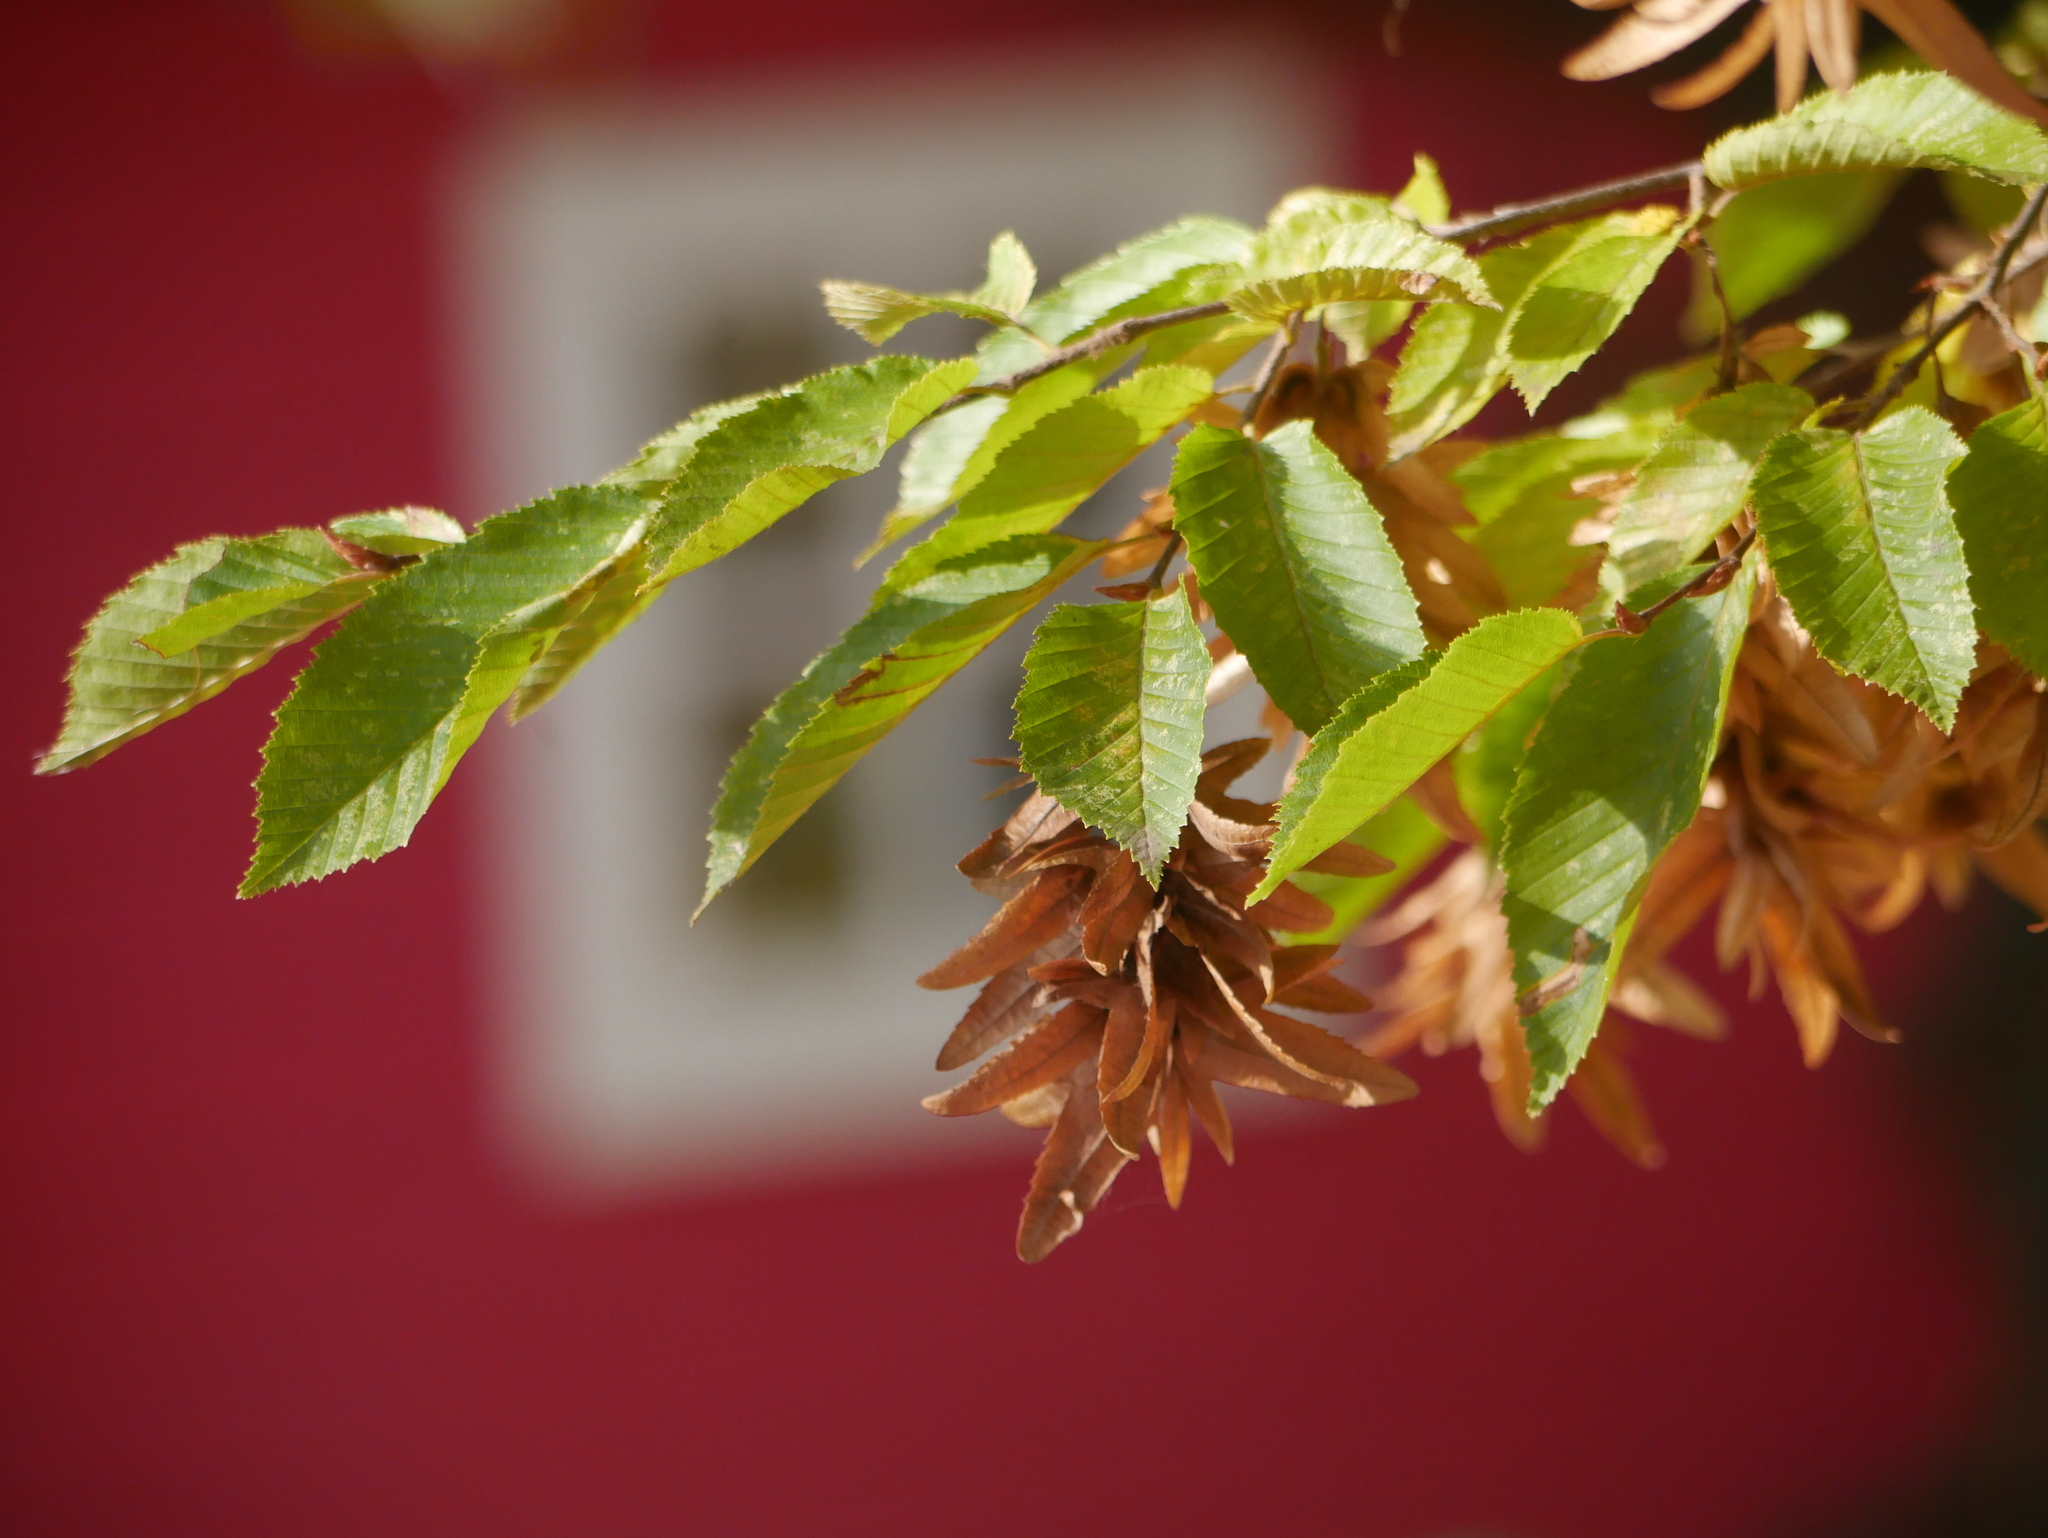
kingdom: Plantae
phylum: Tracheophyta
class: Magnoliopsida
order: Fagales
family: Betulaceae
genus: Carpinus
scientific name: Carpinus betulus
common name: Hornbeam
